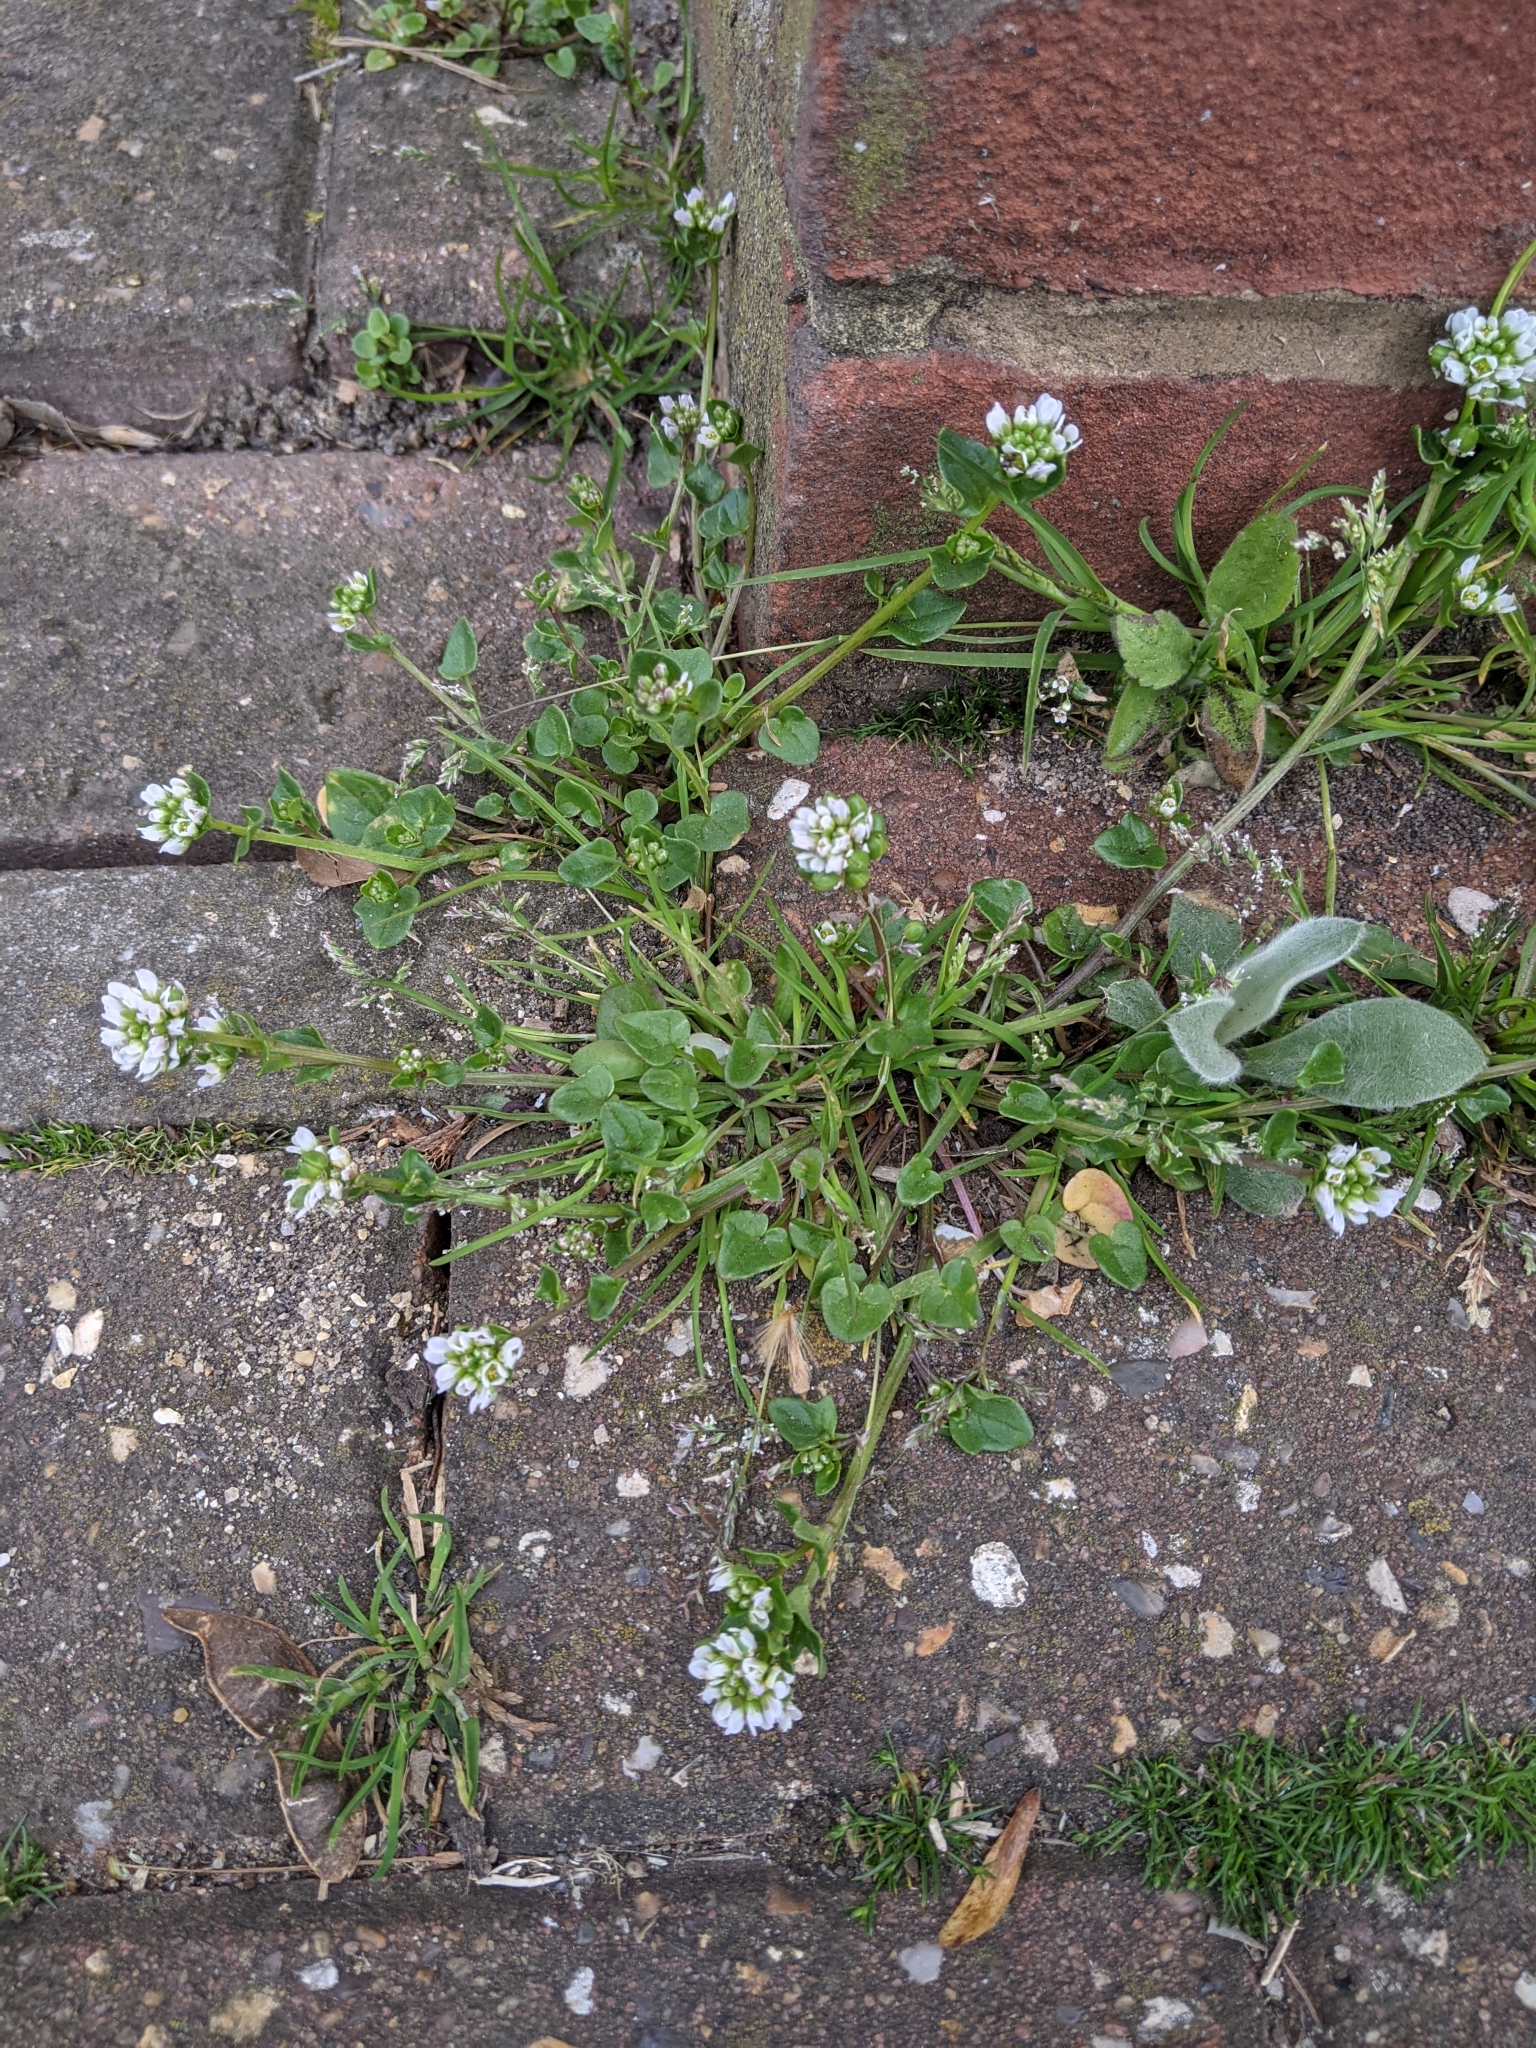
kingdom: Plantae
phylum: Tracheophyta
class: Magnoliopsida
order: Brassicales
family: Brassicaceae
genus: Cochlearia
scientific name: Cochlearia danica
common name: Early scurvygrass
